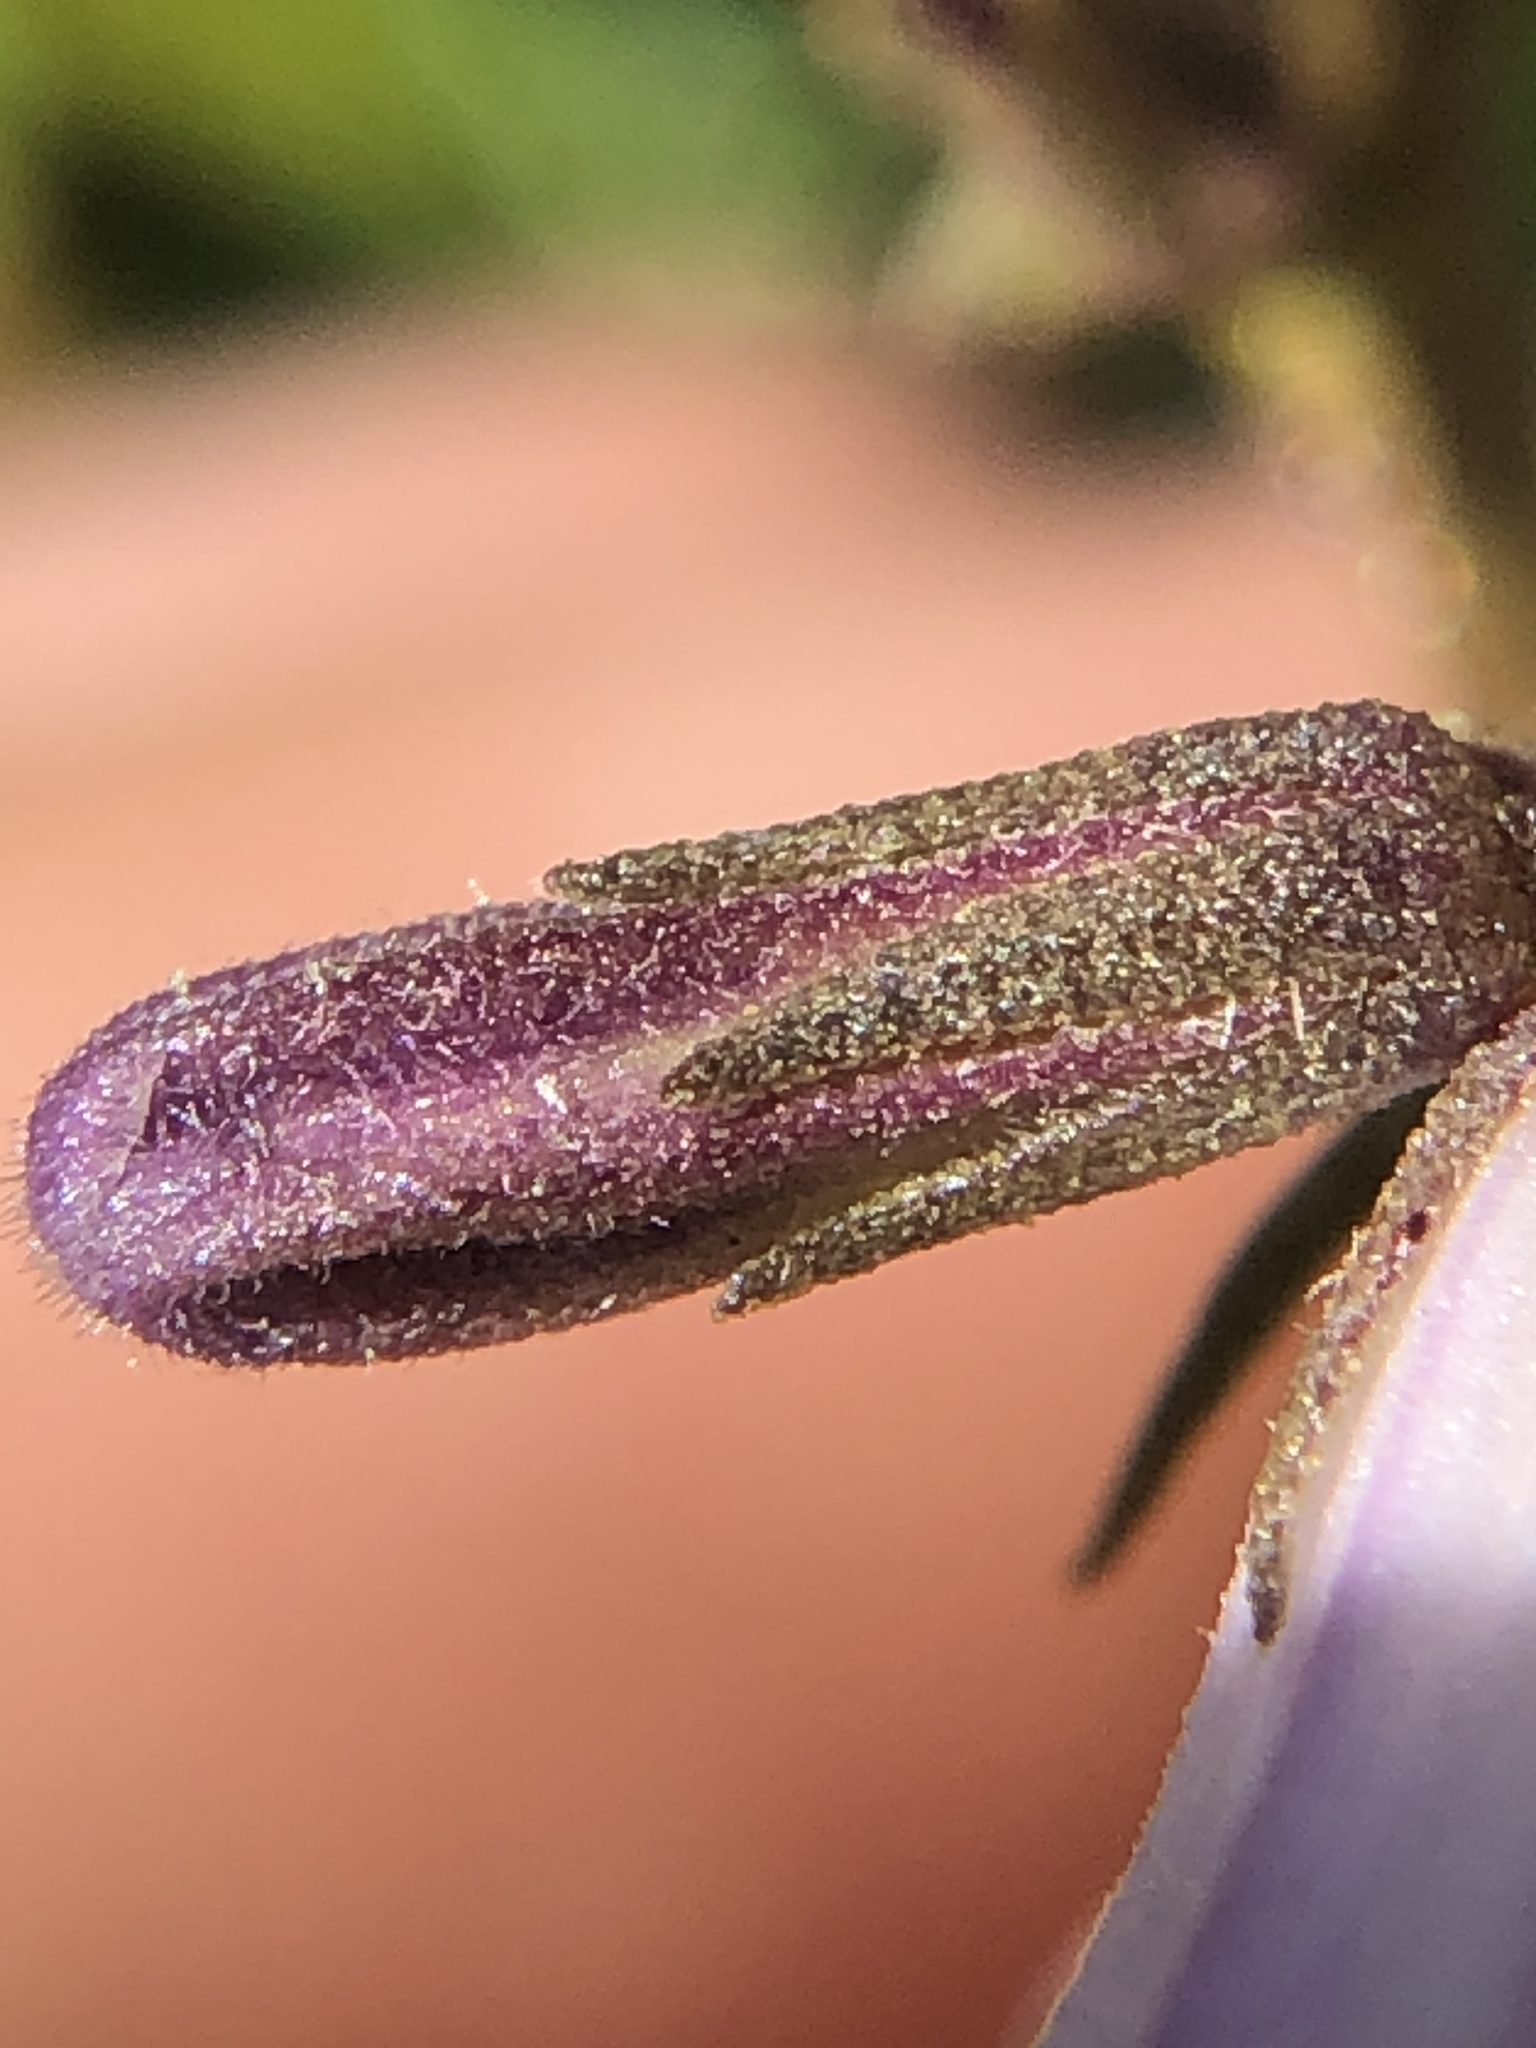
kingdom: Plantae
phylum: Tracheophyta
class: Magnoliopsida
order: Boraginales
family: Namaceae
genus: Eriodictyon
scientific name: Eriodictyon californicum
